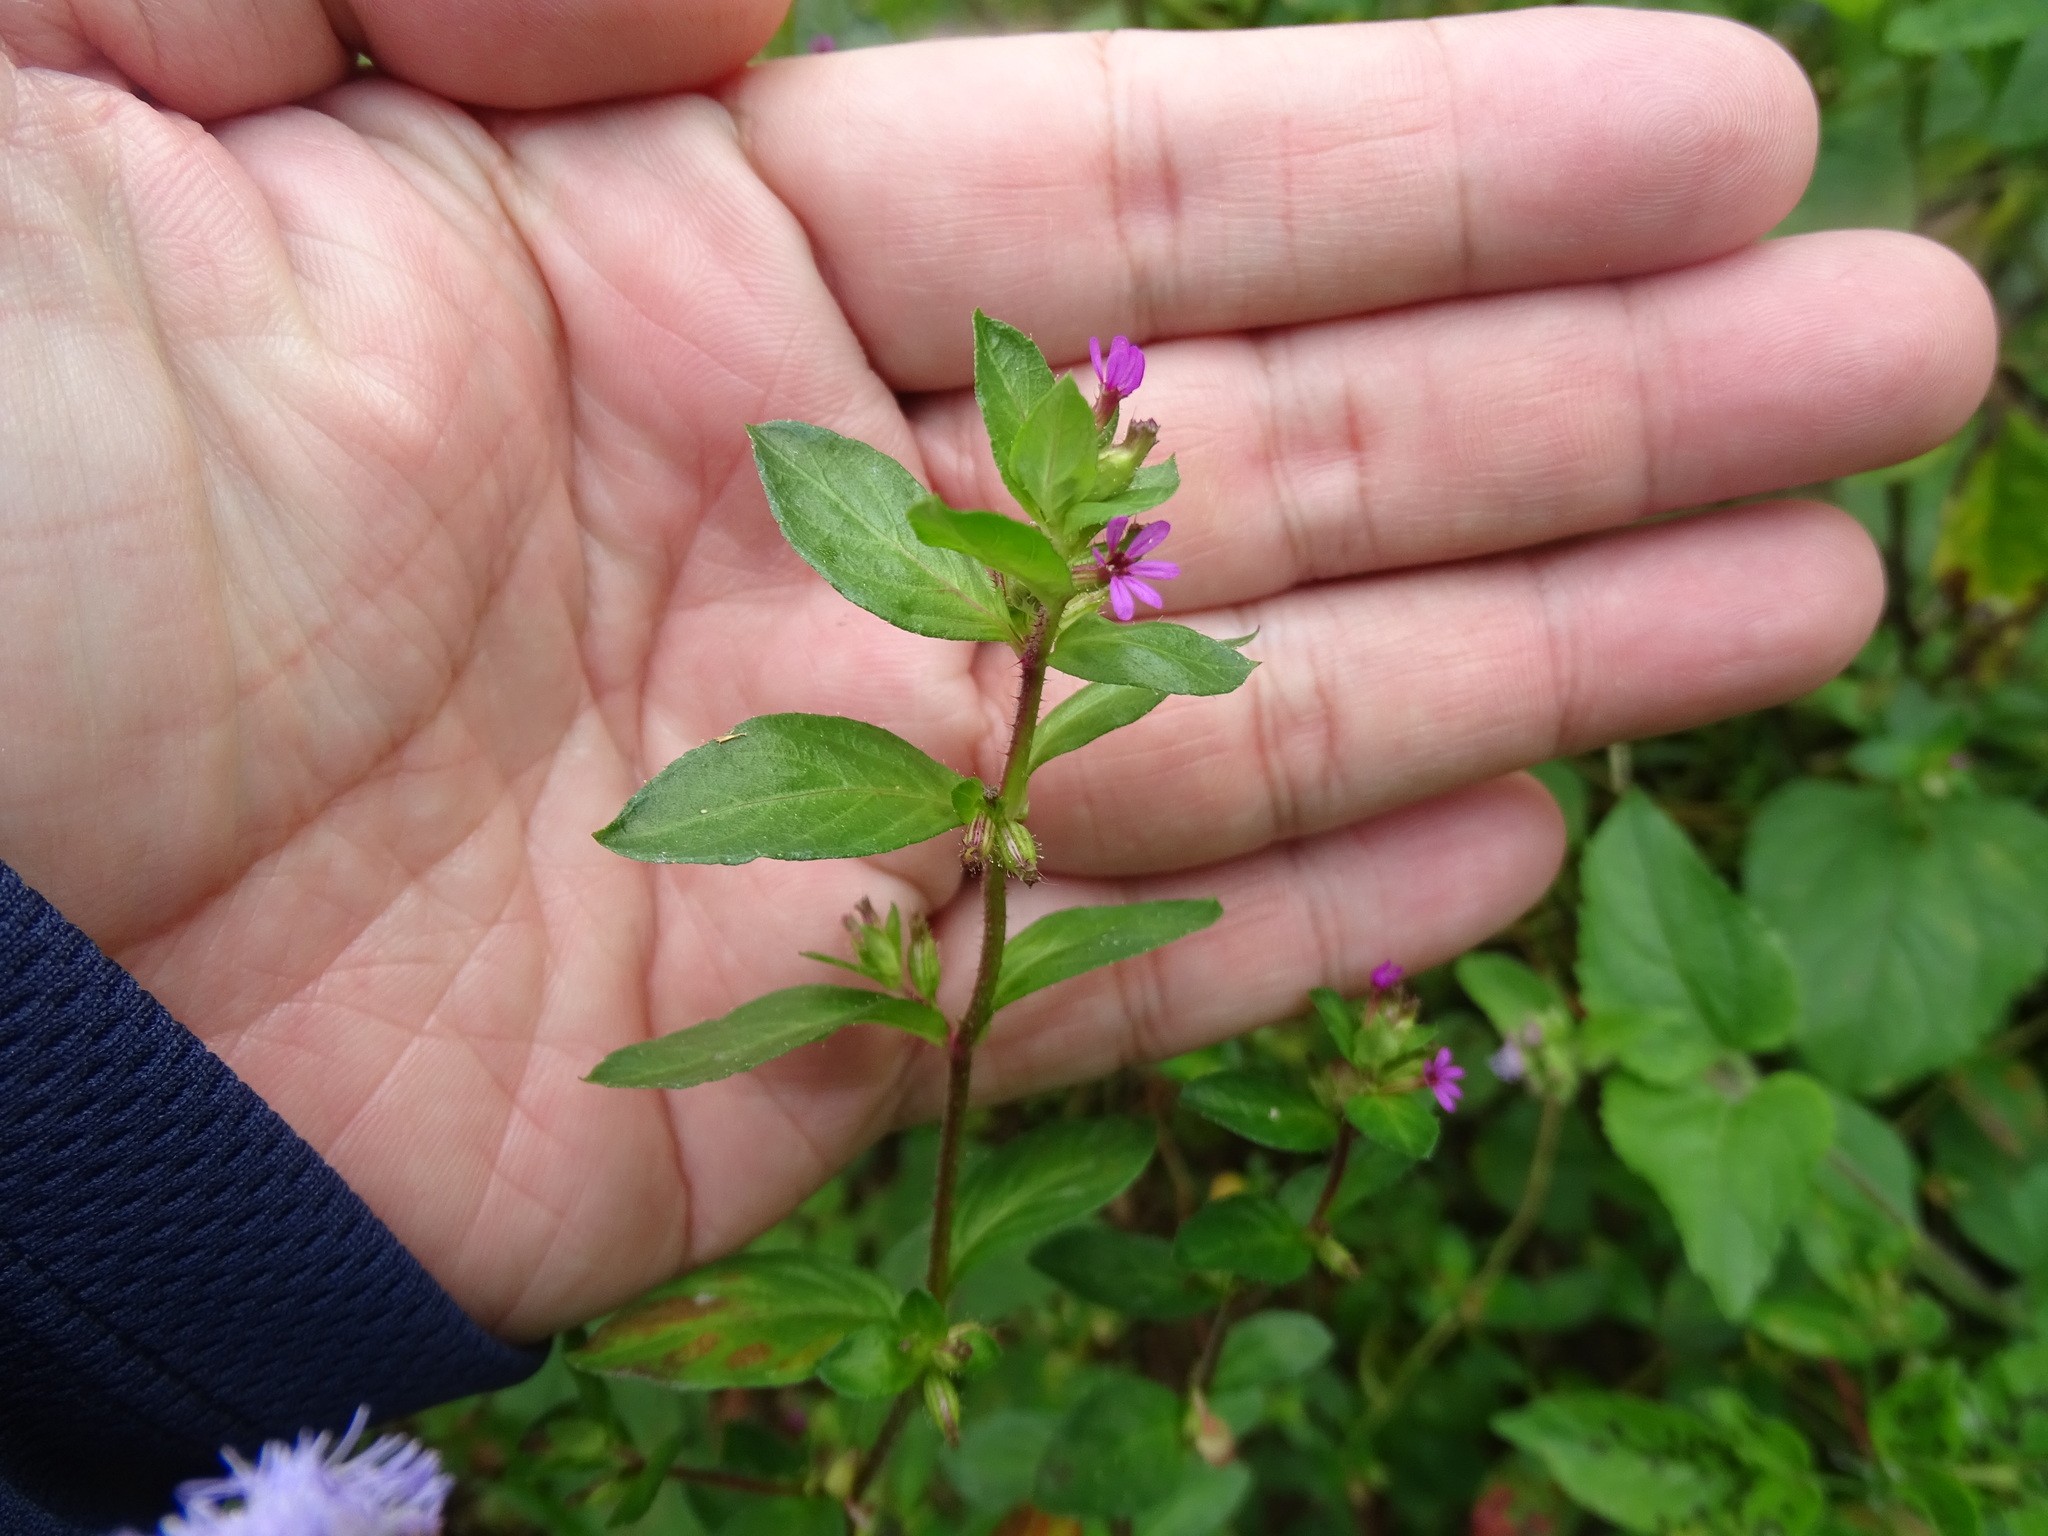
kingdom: Plantae
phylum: Tracheophyta
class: Magnoliopsida
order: Myrtales
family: Lythraceae
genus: Cuphea
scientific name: Cuphea carthagenensis
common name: Colombian waxweed
